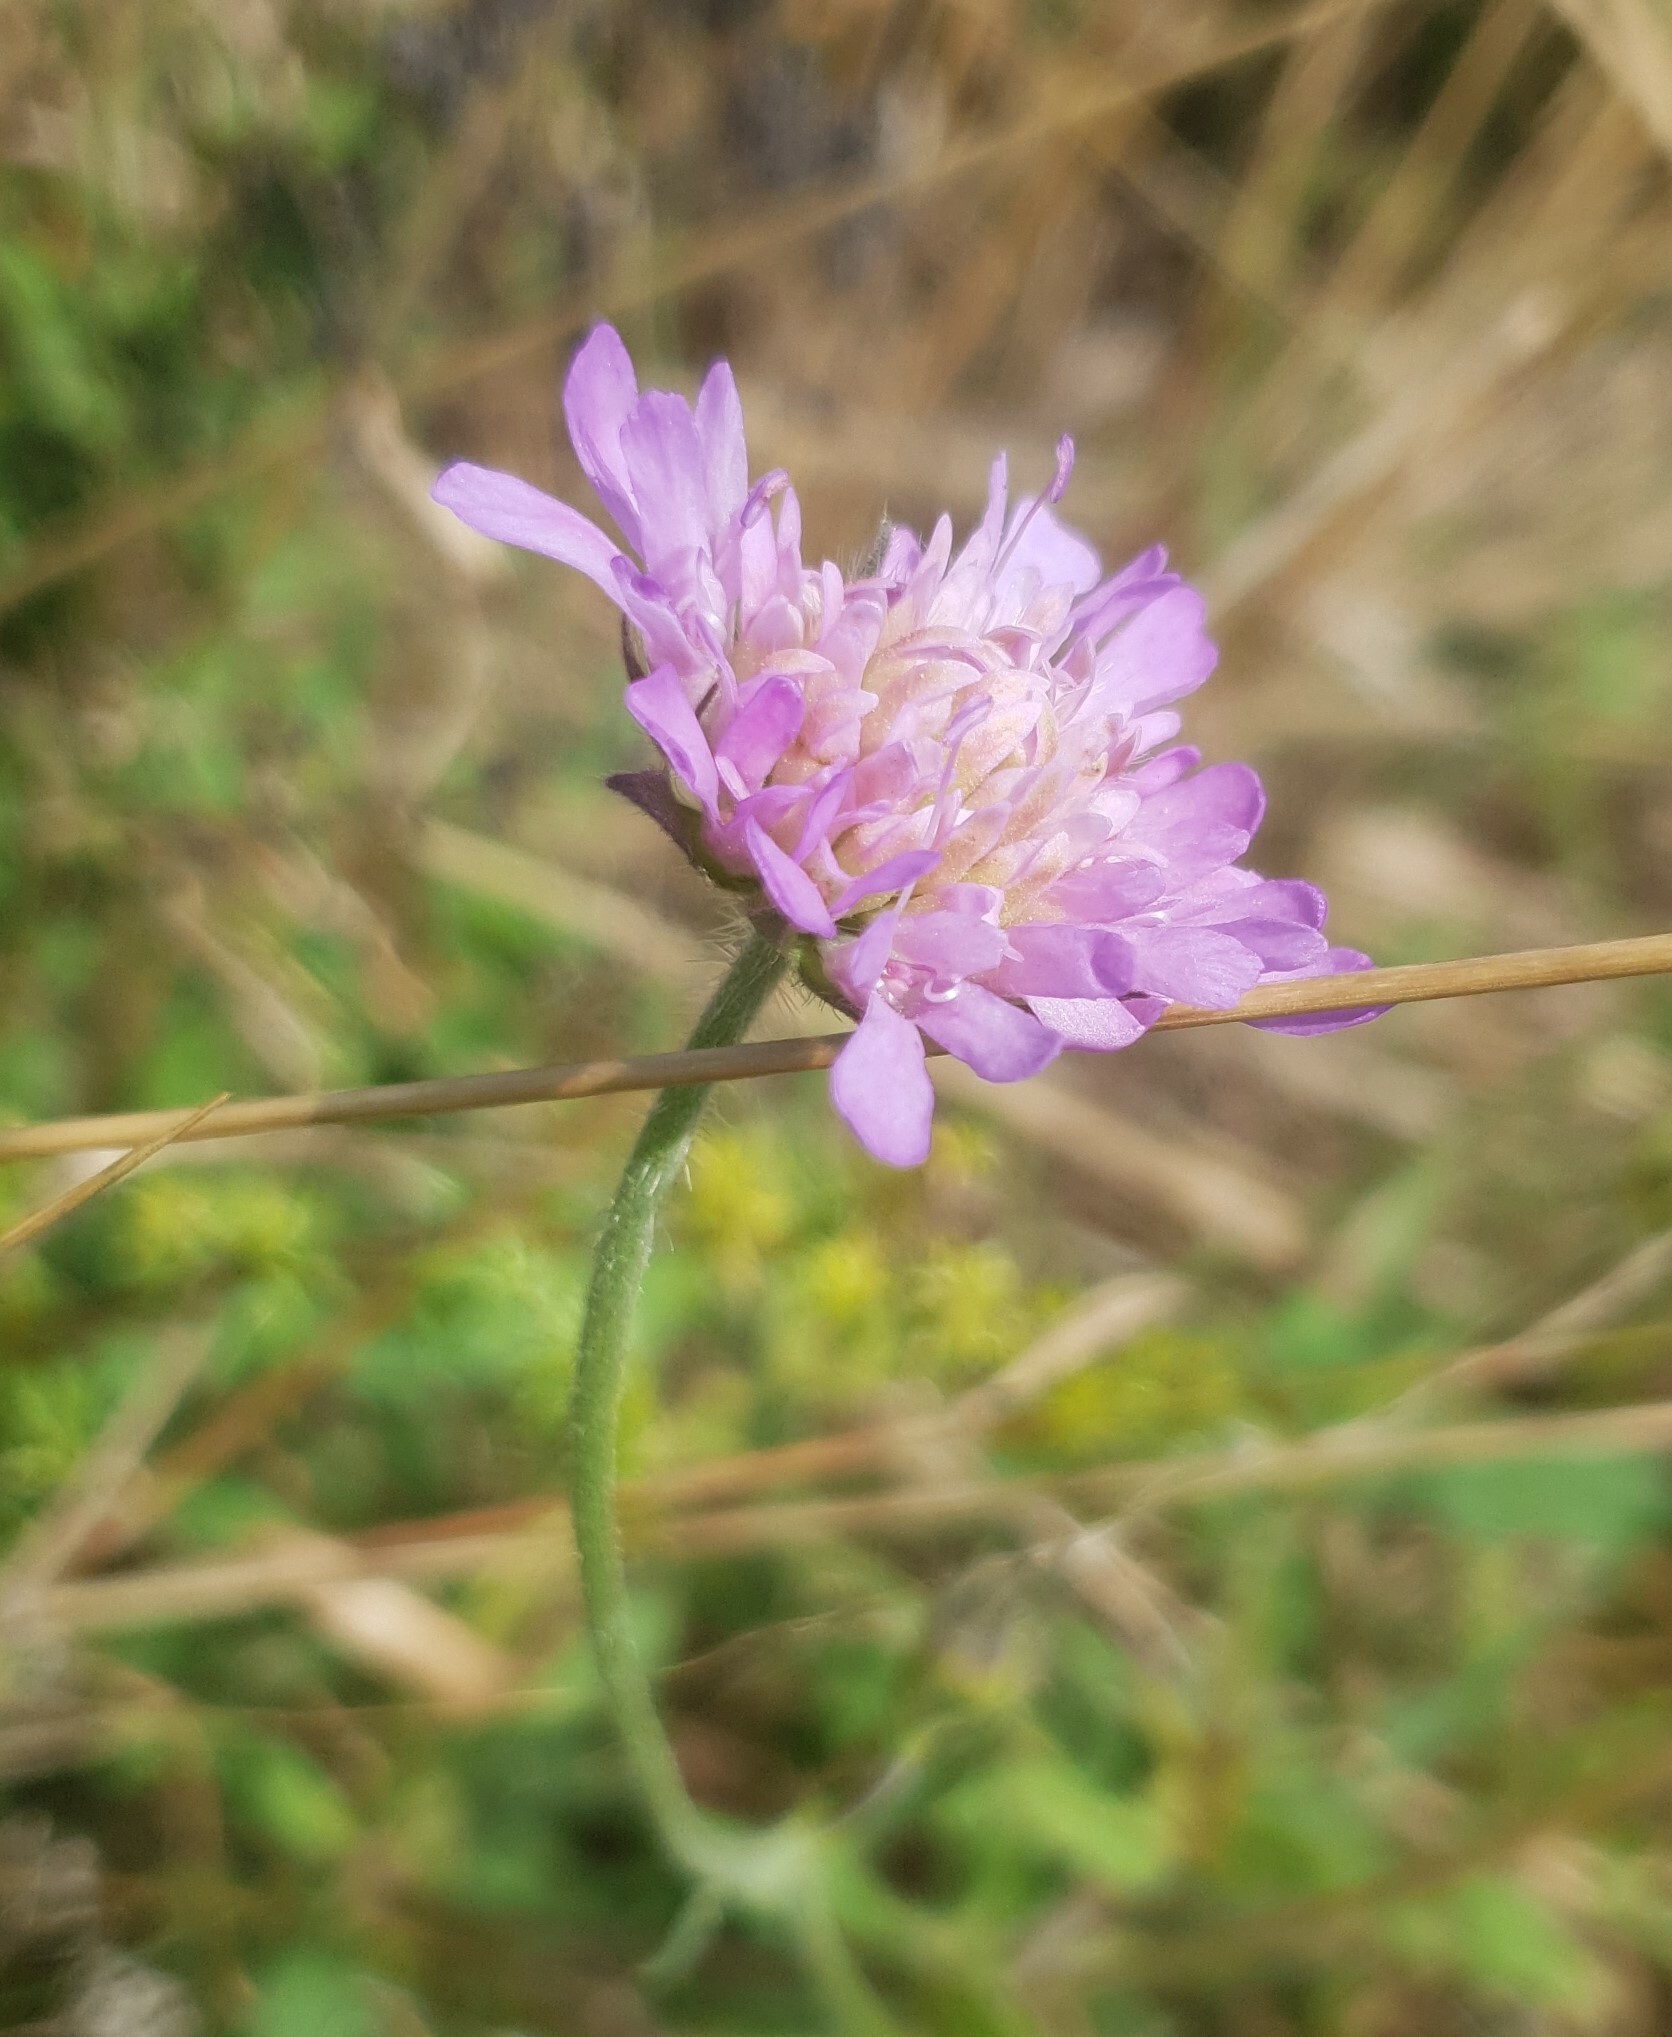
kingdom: Plantae
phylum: Tracheophyta
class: Magnoliopsida
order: Dipsacales
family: Caprifoliaceae
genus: Knautia
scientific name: Knautia arvensis
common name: Field scabiosa
